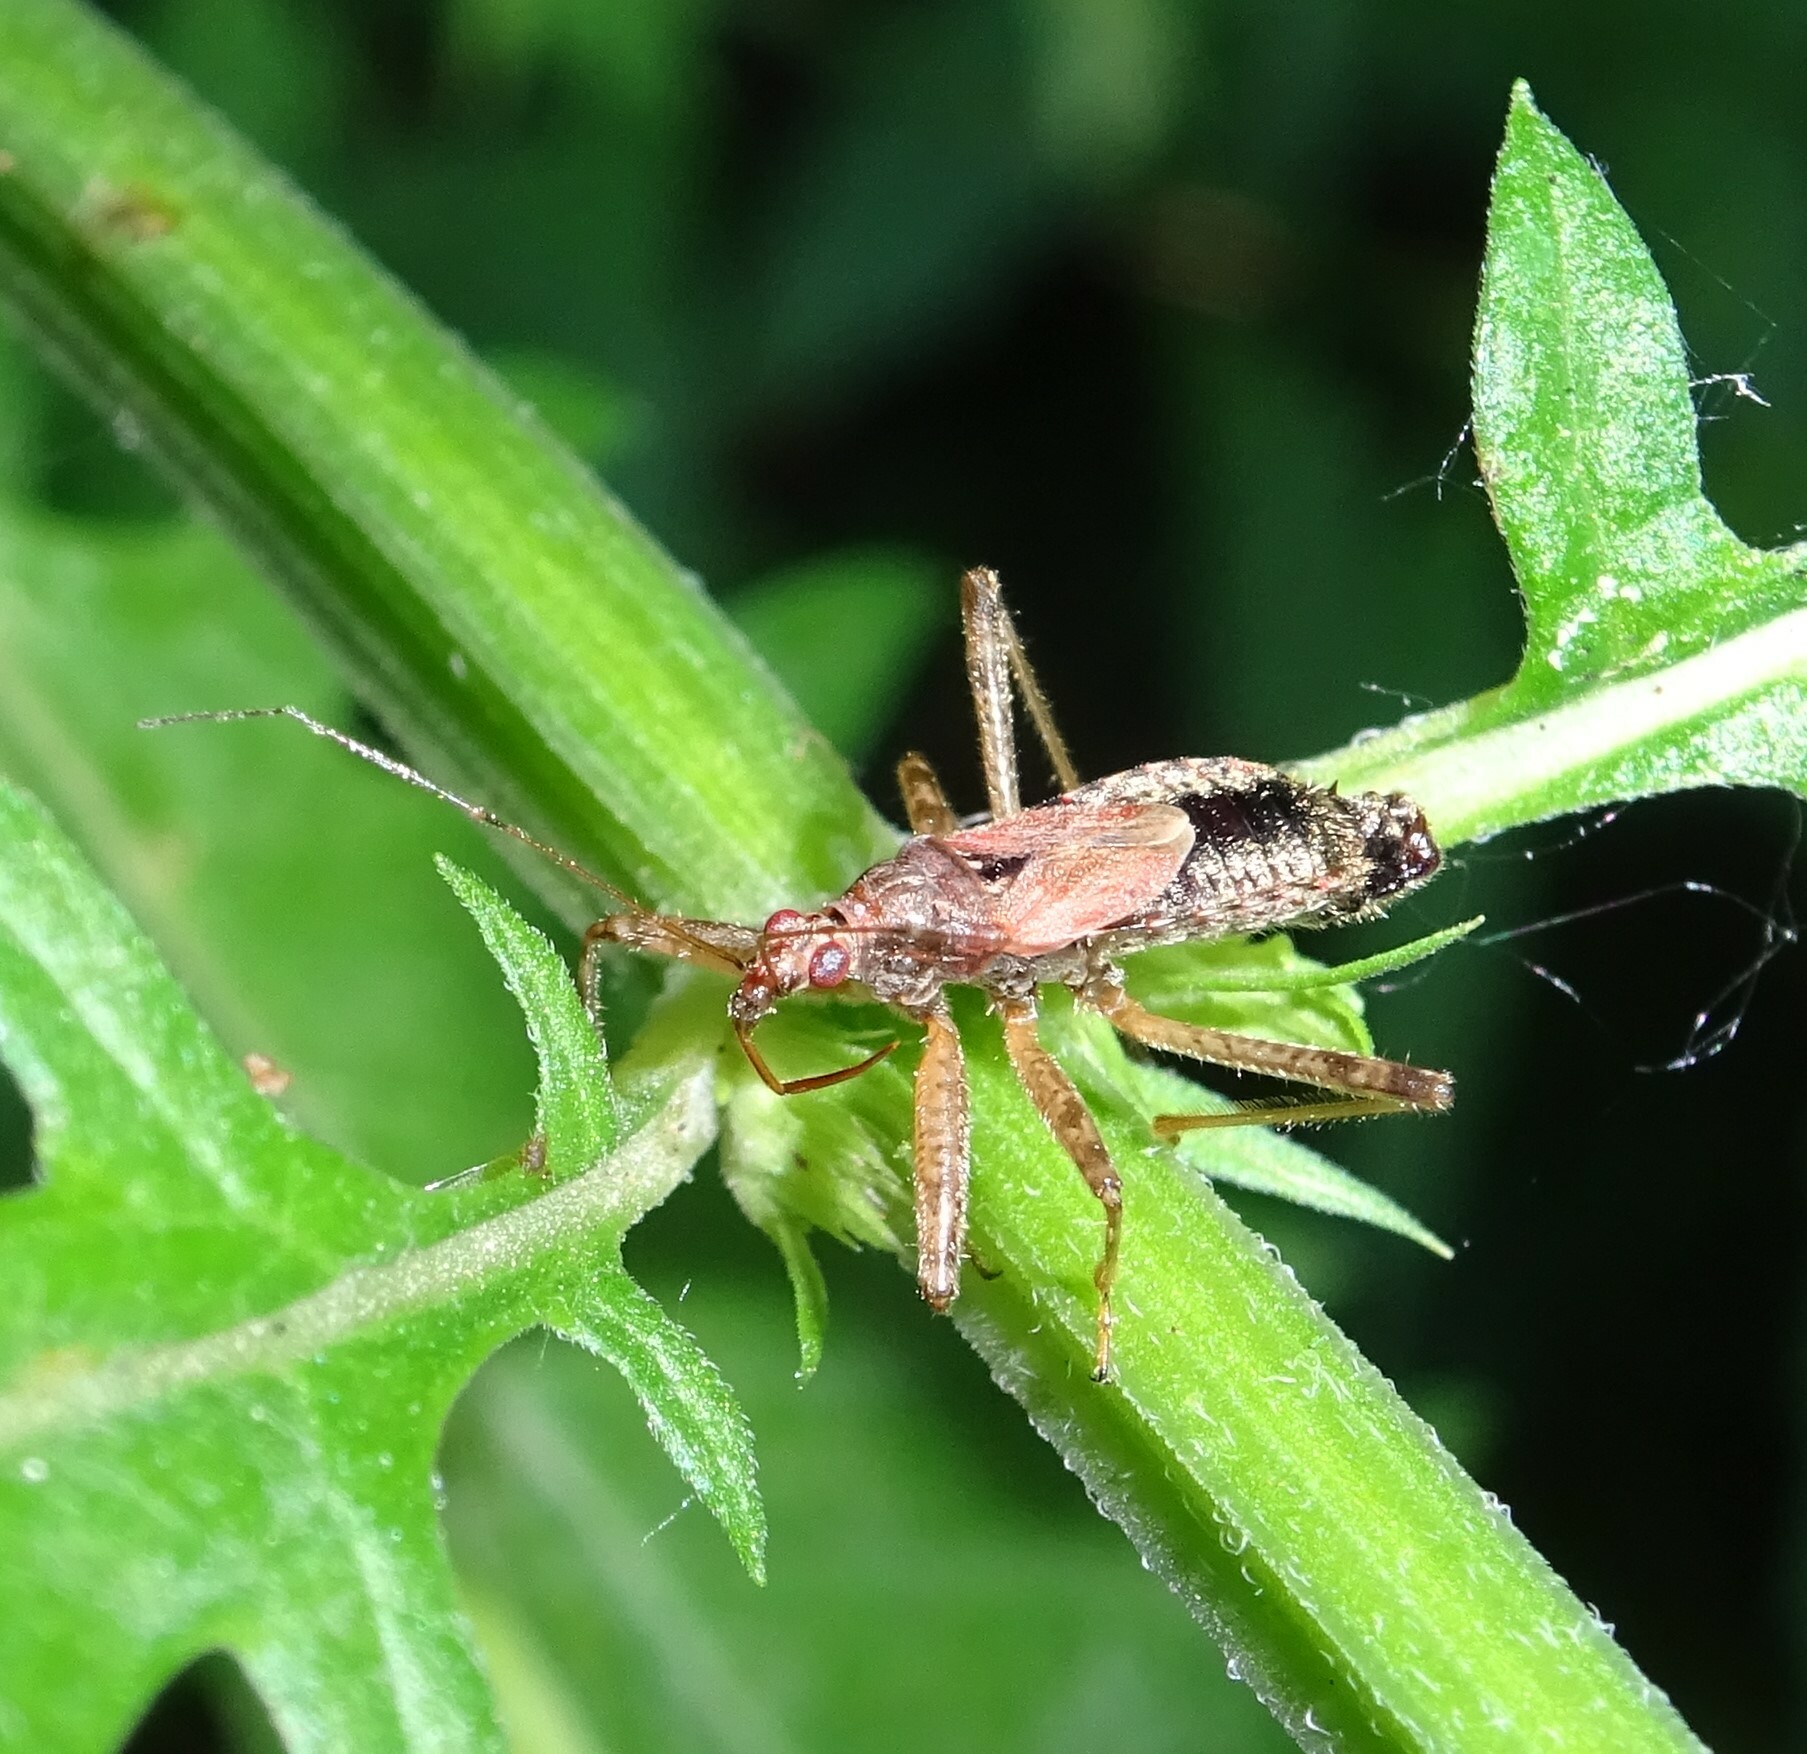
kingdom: Animalia
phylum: Arthropoda
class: Insecta
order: Hemiptera
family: Nabidae
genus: Himacerus
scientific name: Himacerus apterus
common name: Tree damsel bug
